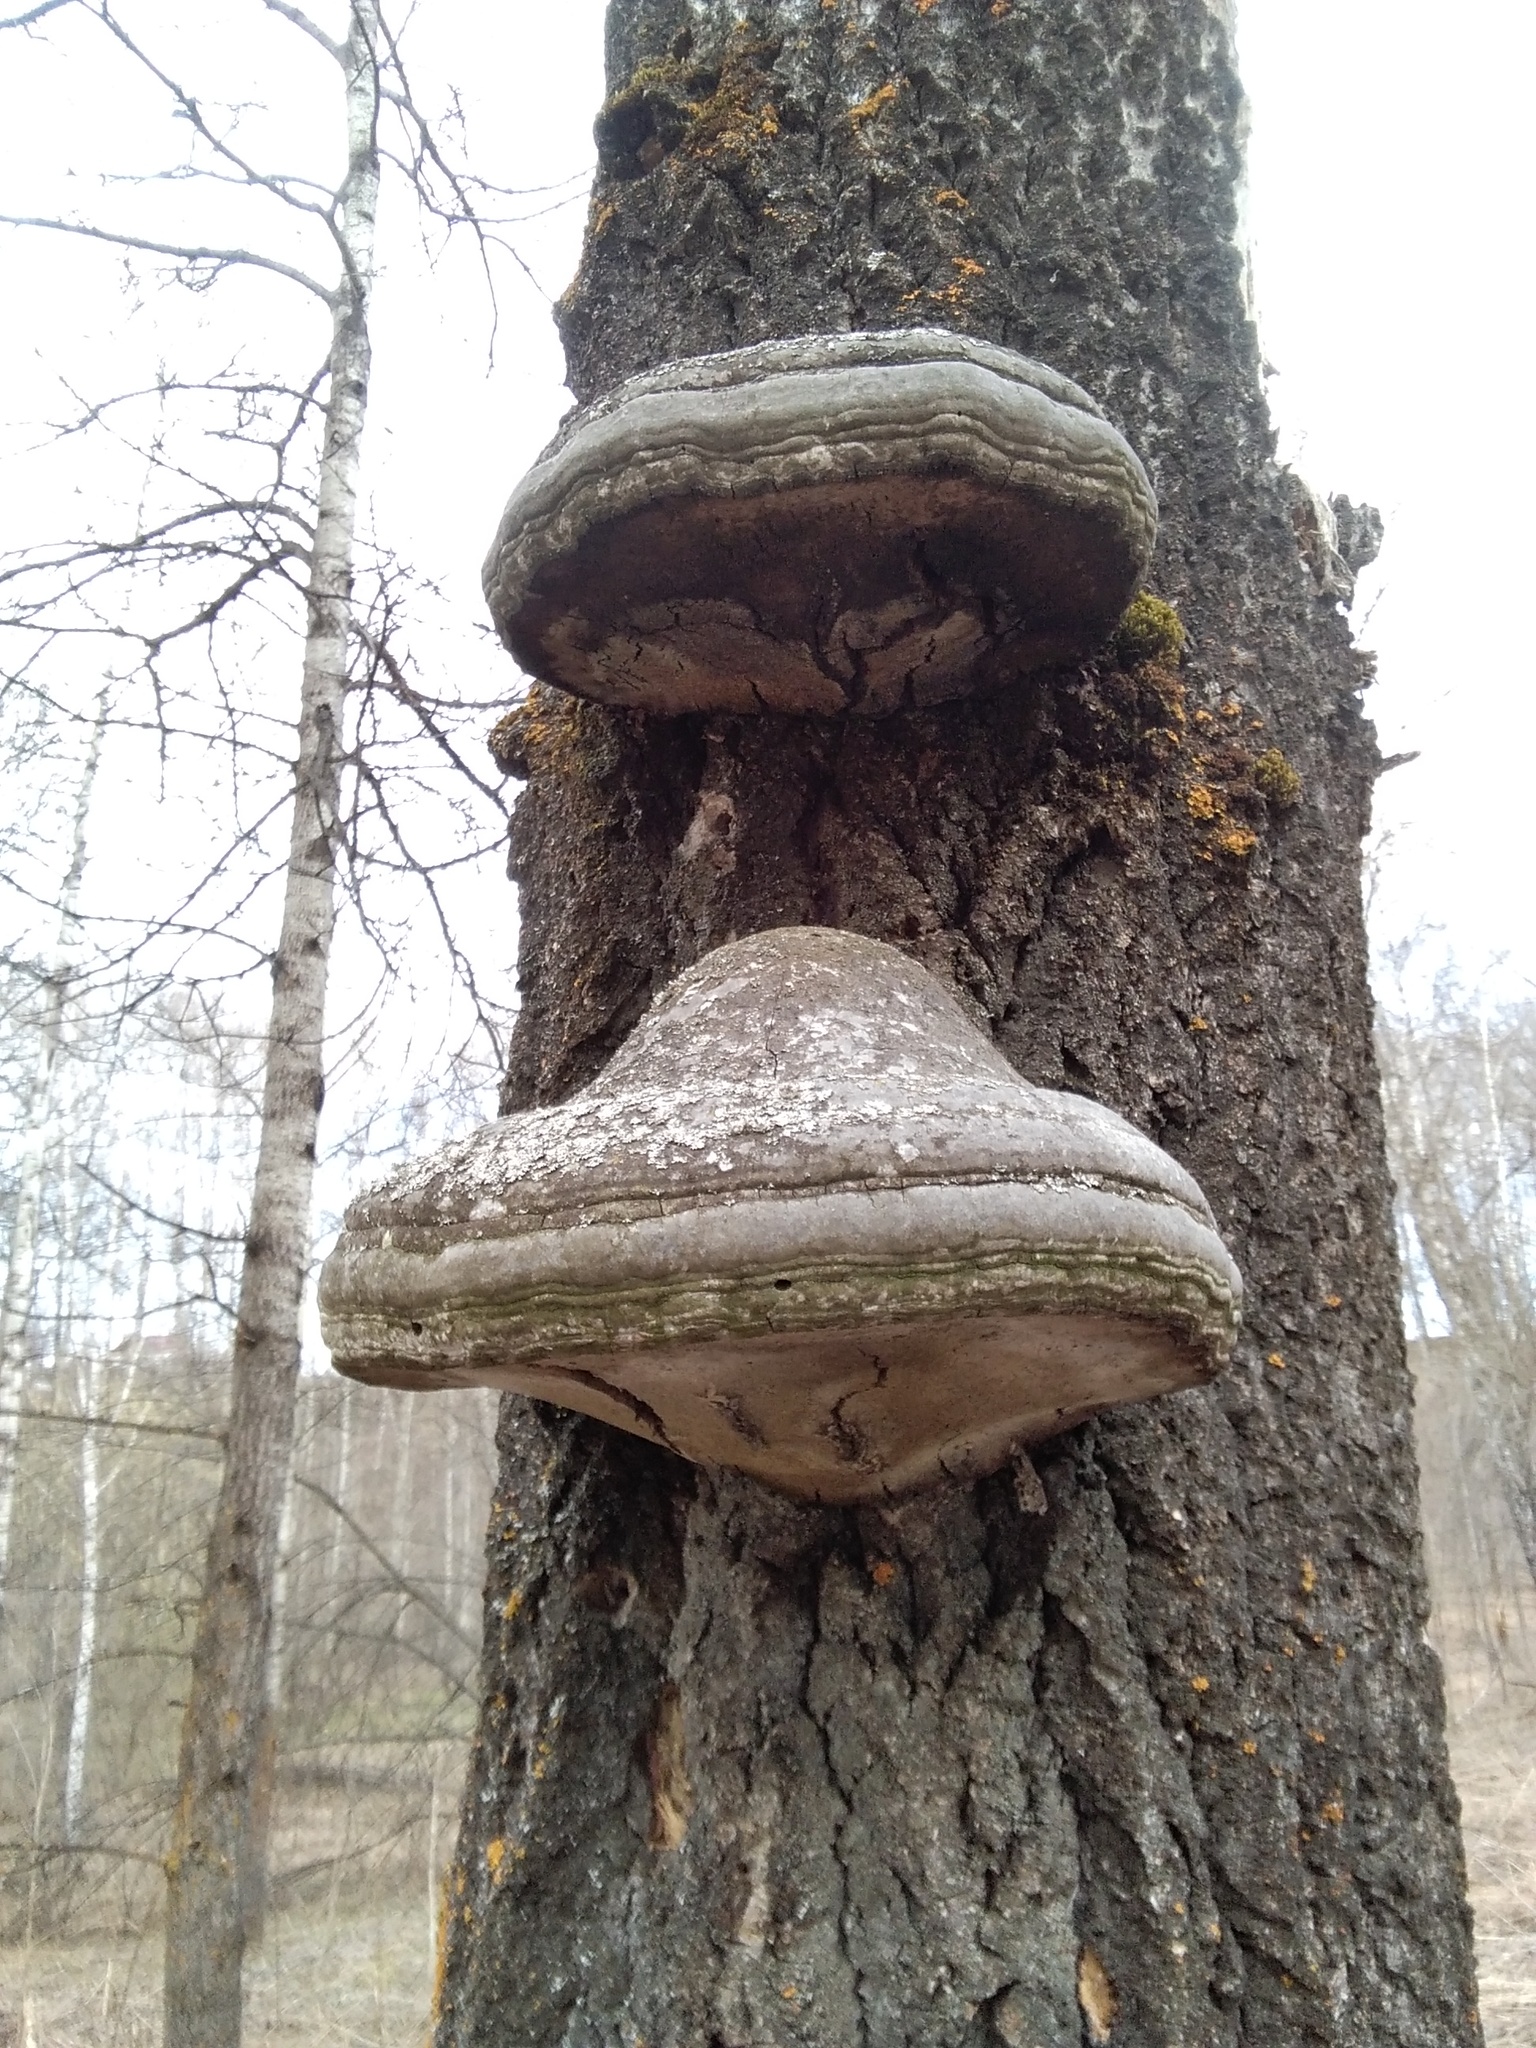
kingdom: Fungi
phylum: Basidiomycota
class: Agaricomycetes
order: Polyporales
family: Polyporaceae
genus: Fomes
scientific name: Fomes fomentarius
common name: Hoof fungus
